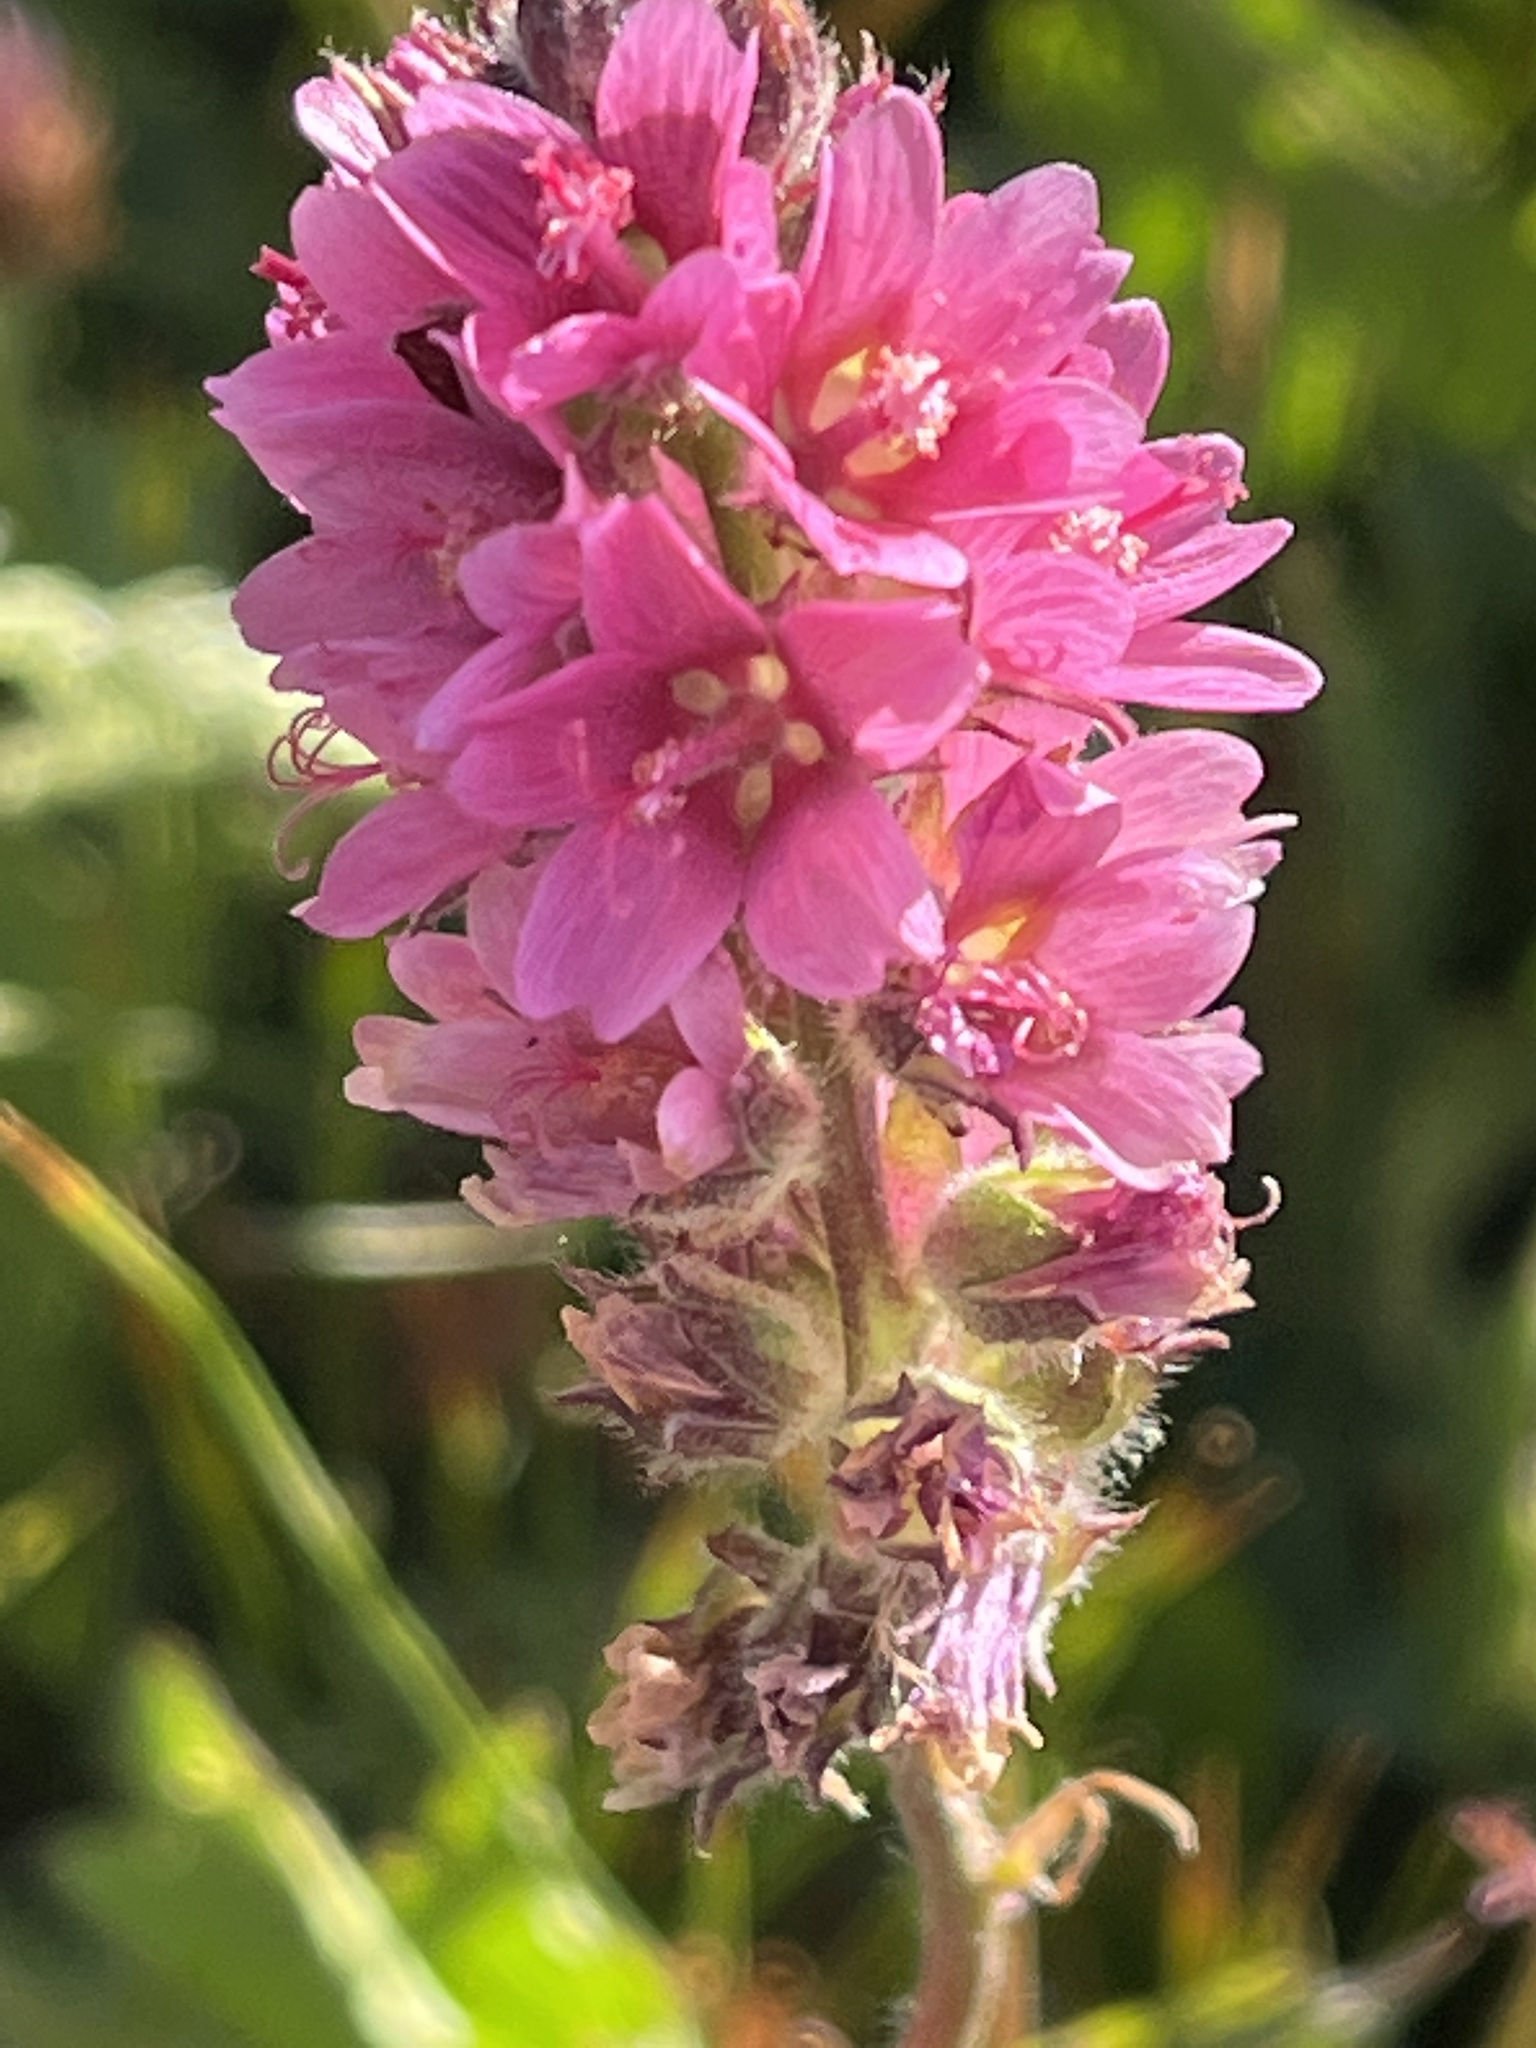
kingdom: Plantae
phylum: Tracheophyta
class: Magnoliopsida
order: Malvales
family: Malvaceae
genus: Sidalcea
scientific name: Sidalcea oregana
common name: Oregon checker-mallow
